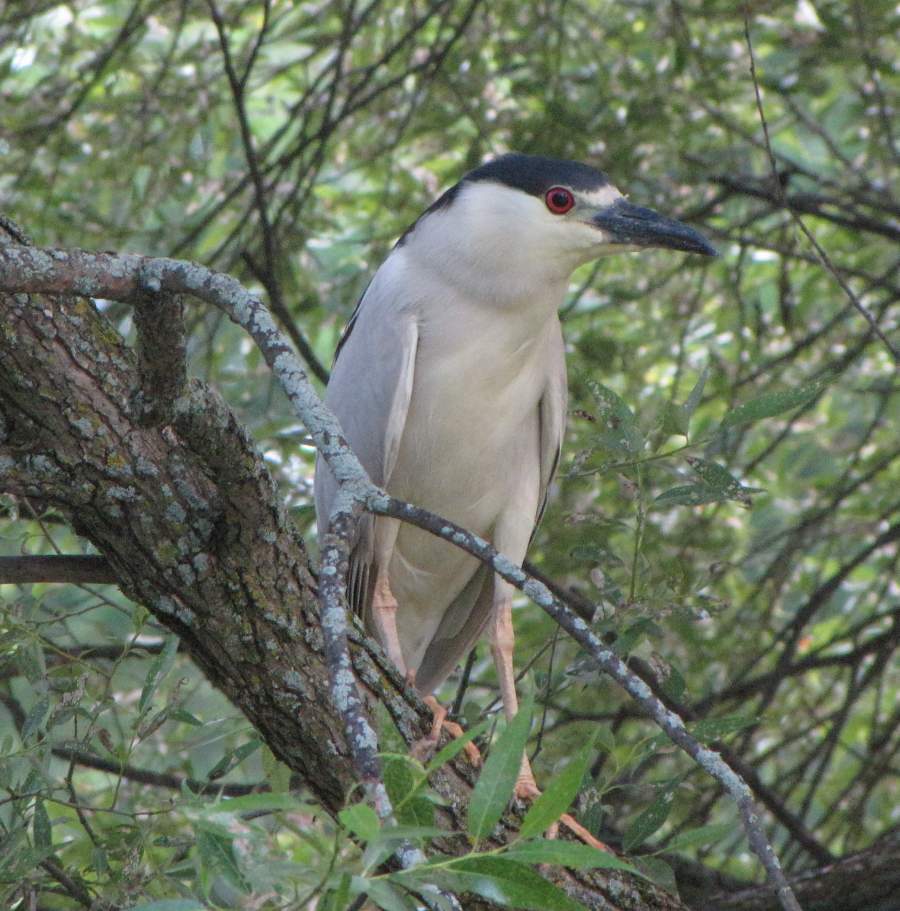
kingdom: Animalia
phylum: Chordata
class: Aves
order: Pelecaniformes
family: Ardeidae
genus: Nycticorax
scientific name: Nycticorax nycticorax
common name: Black-crowned night heron
